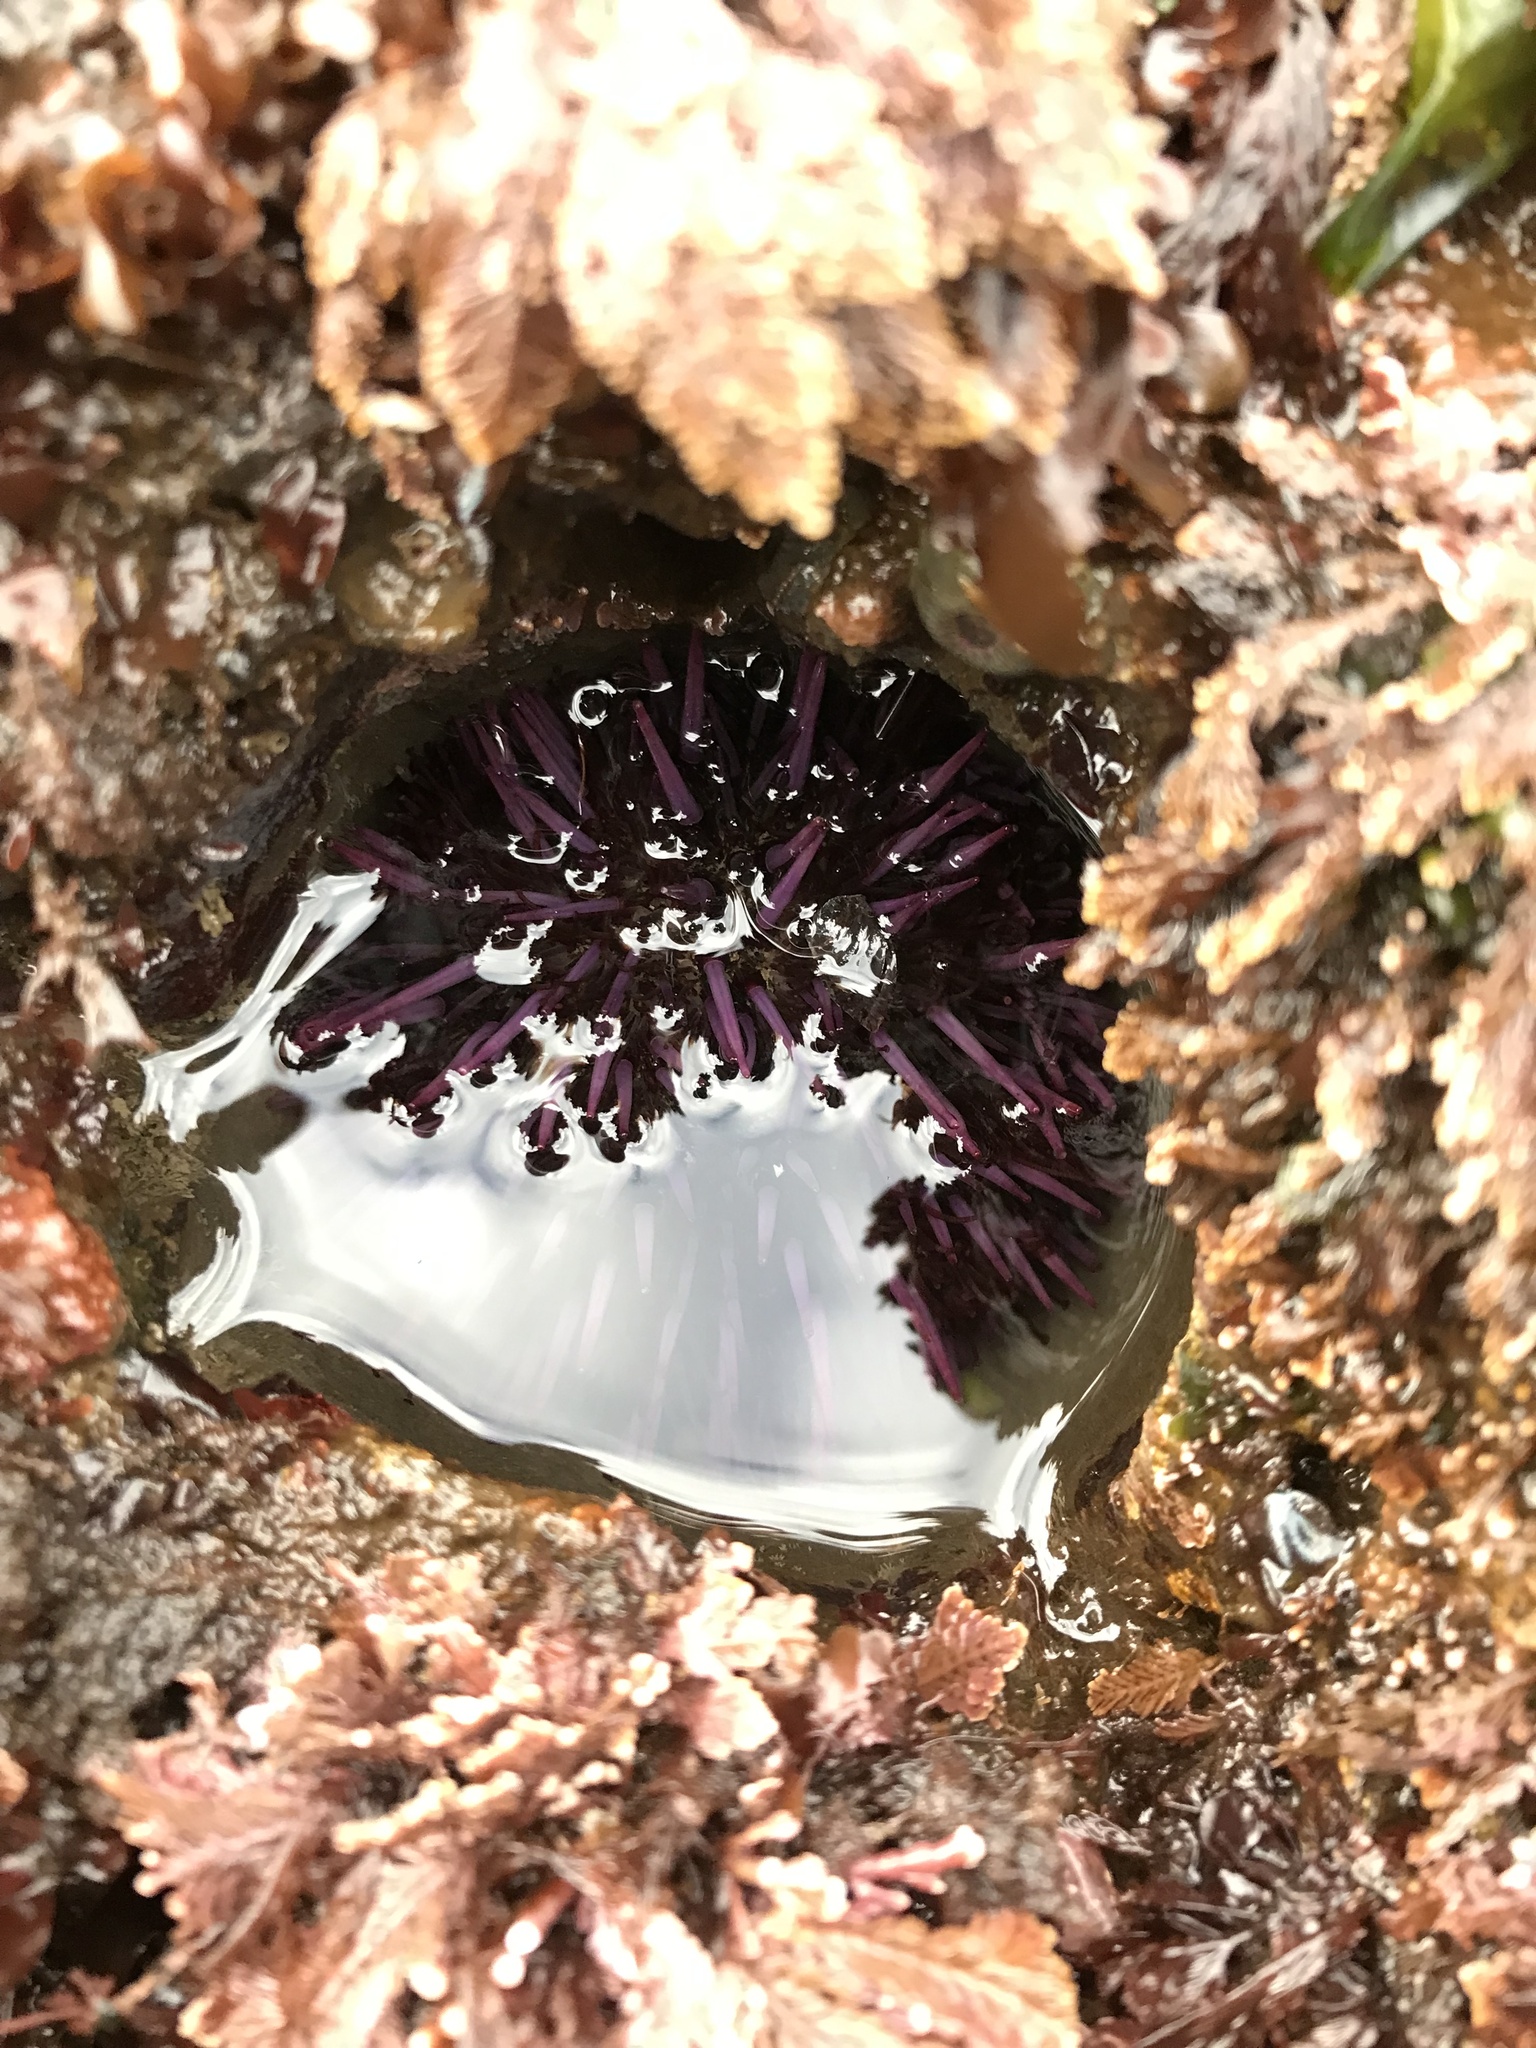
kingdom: Animalia
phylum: Echinodermata
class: Echinoidea
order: Camarodonta
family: Strongylocentrotidae
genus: Strongylocentrotus
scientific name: Strongylocentrotus purpuratus
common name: Purple sea urchin
